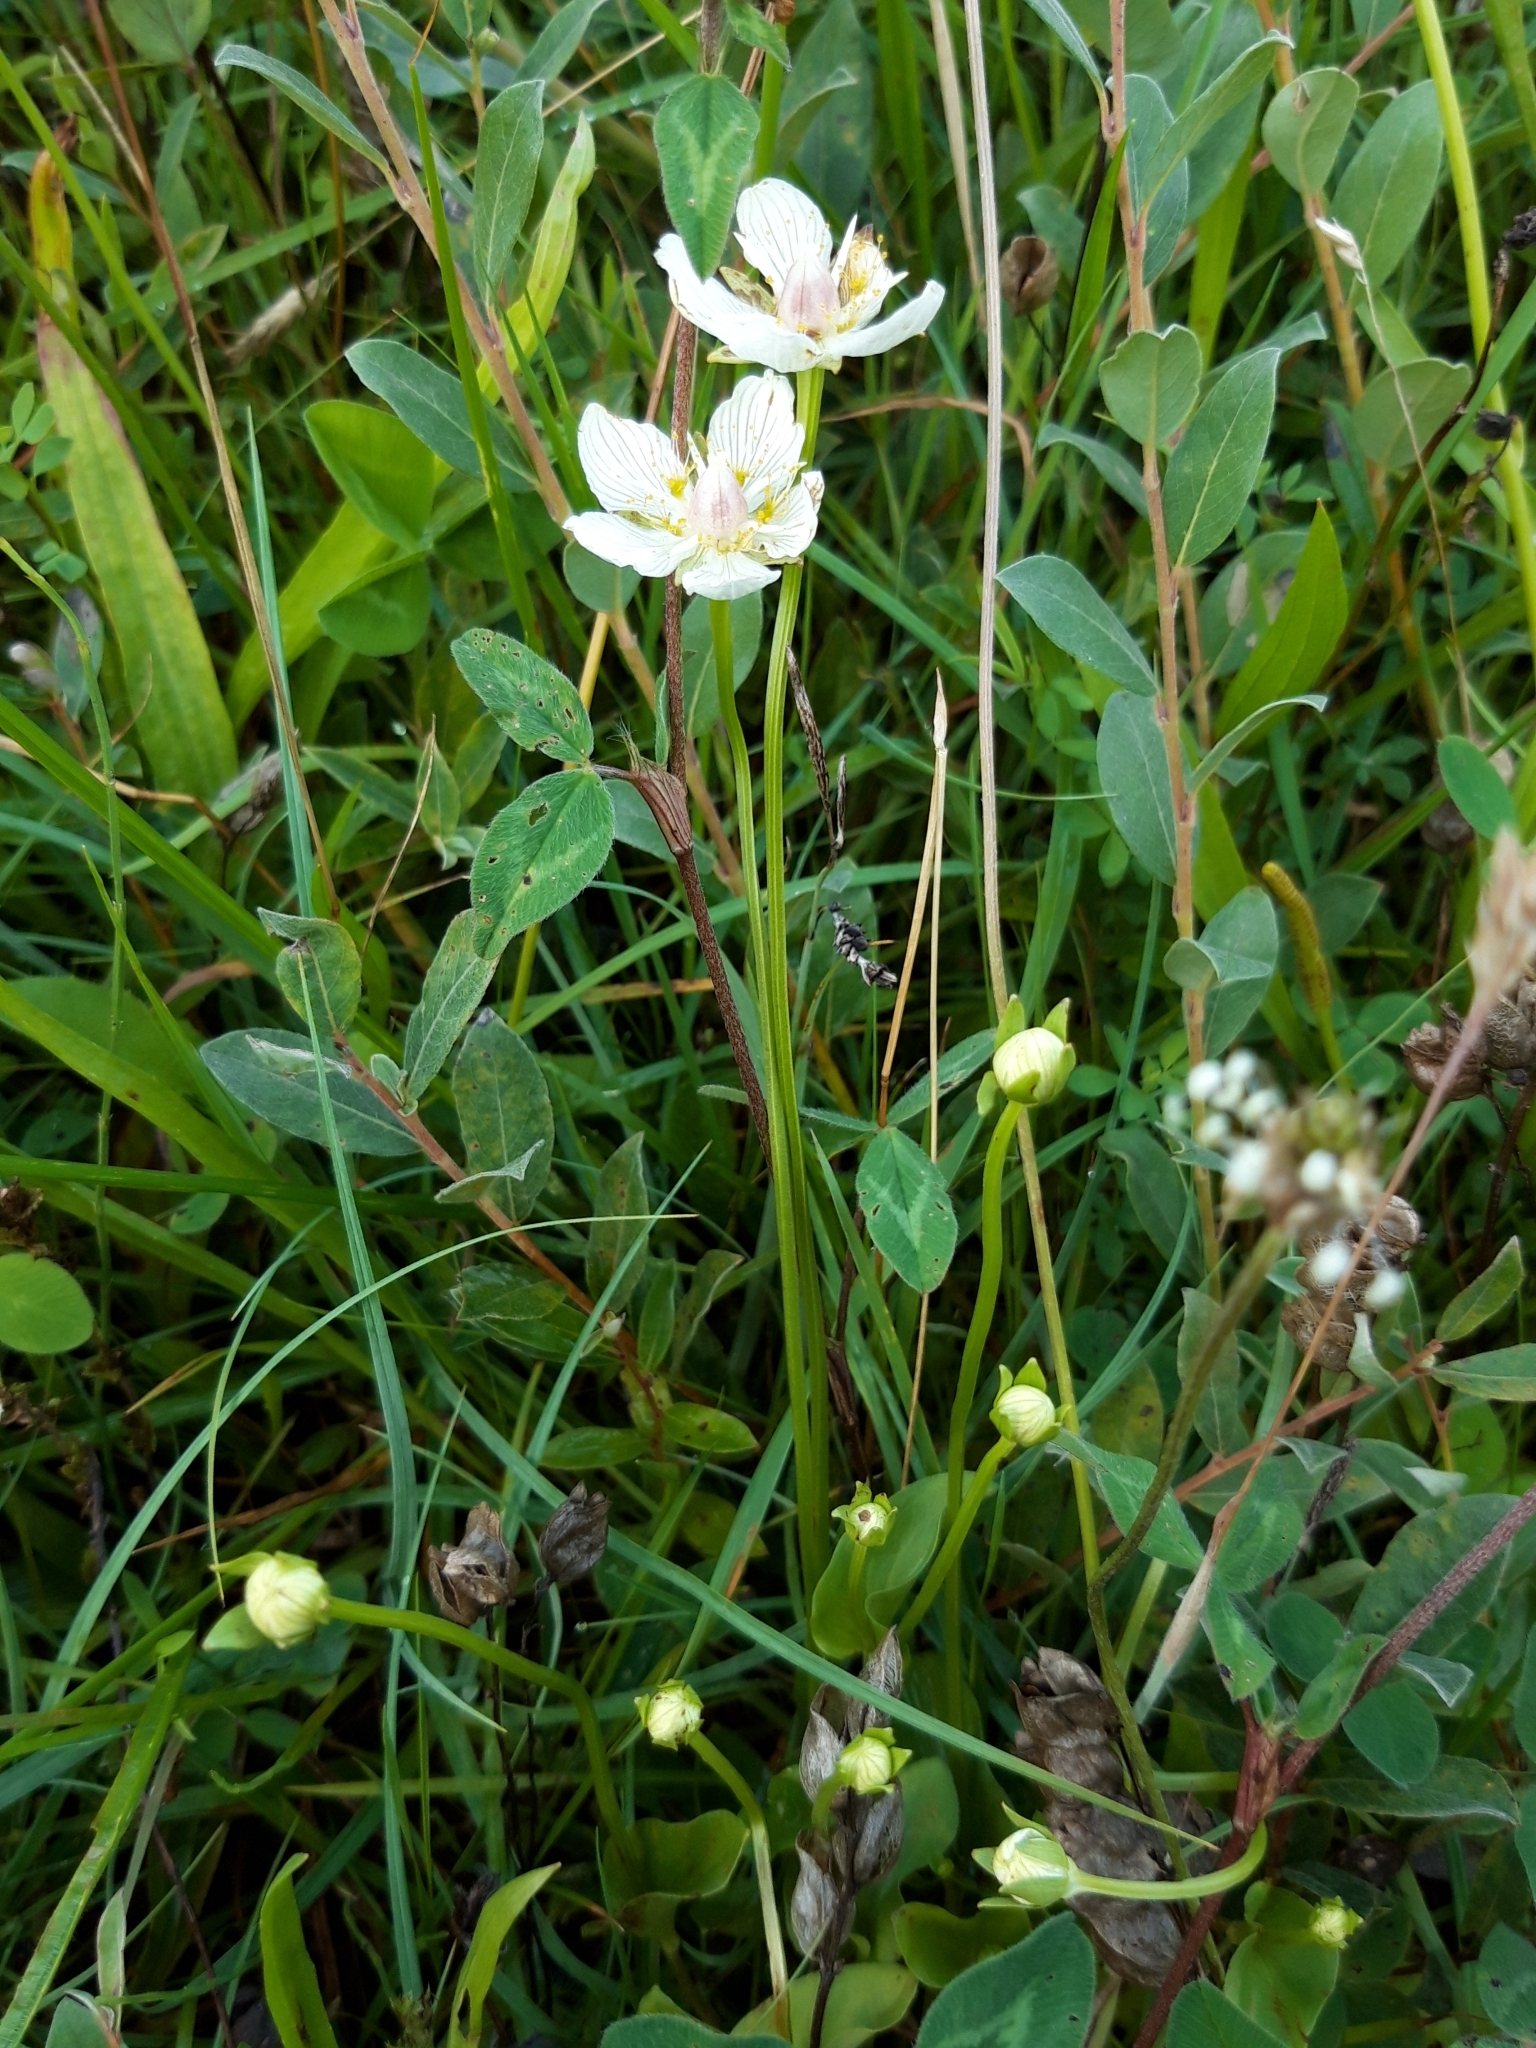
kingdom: Plantae
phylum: Tracheophyta
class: Magnoliopsida
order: Celastrales
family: Parnassiaceae
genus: Parnassia
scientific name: Parnassia palustris
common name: Grass-of-parnassus
